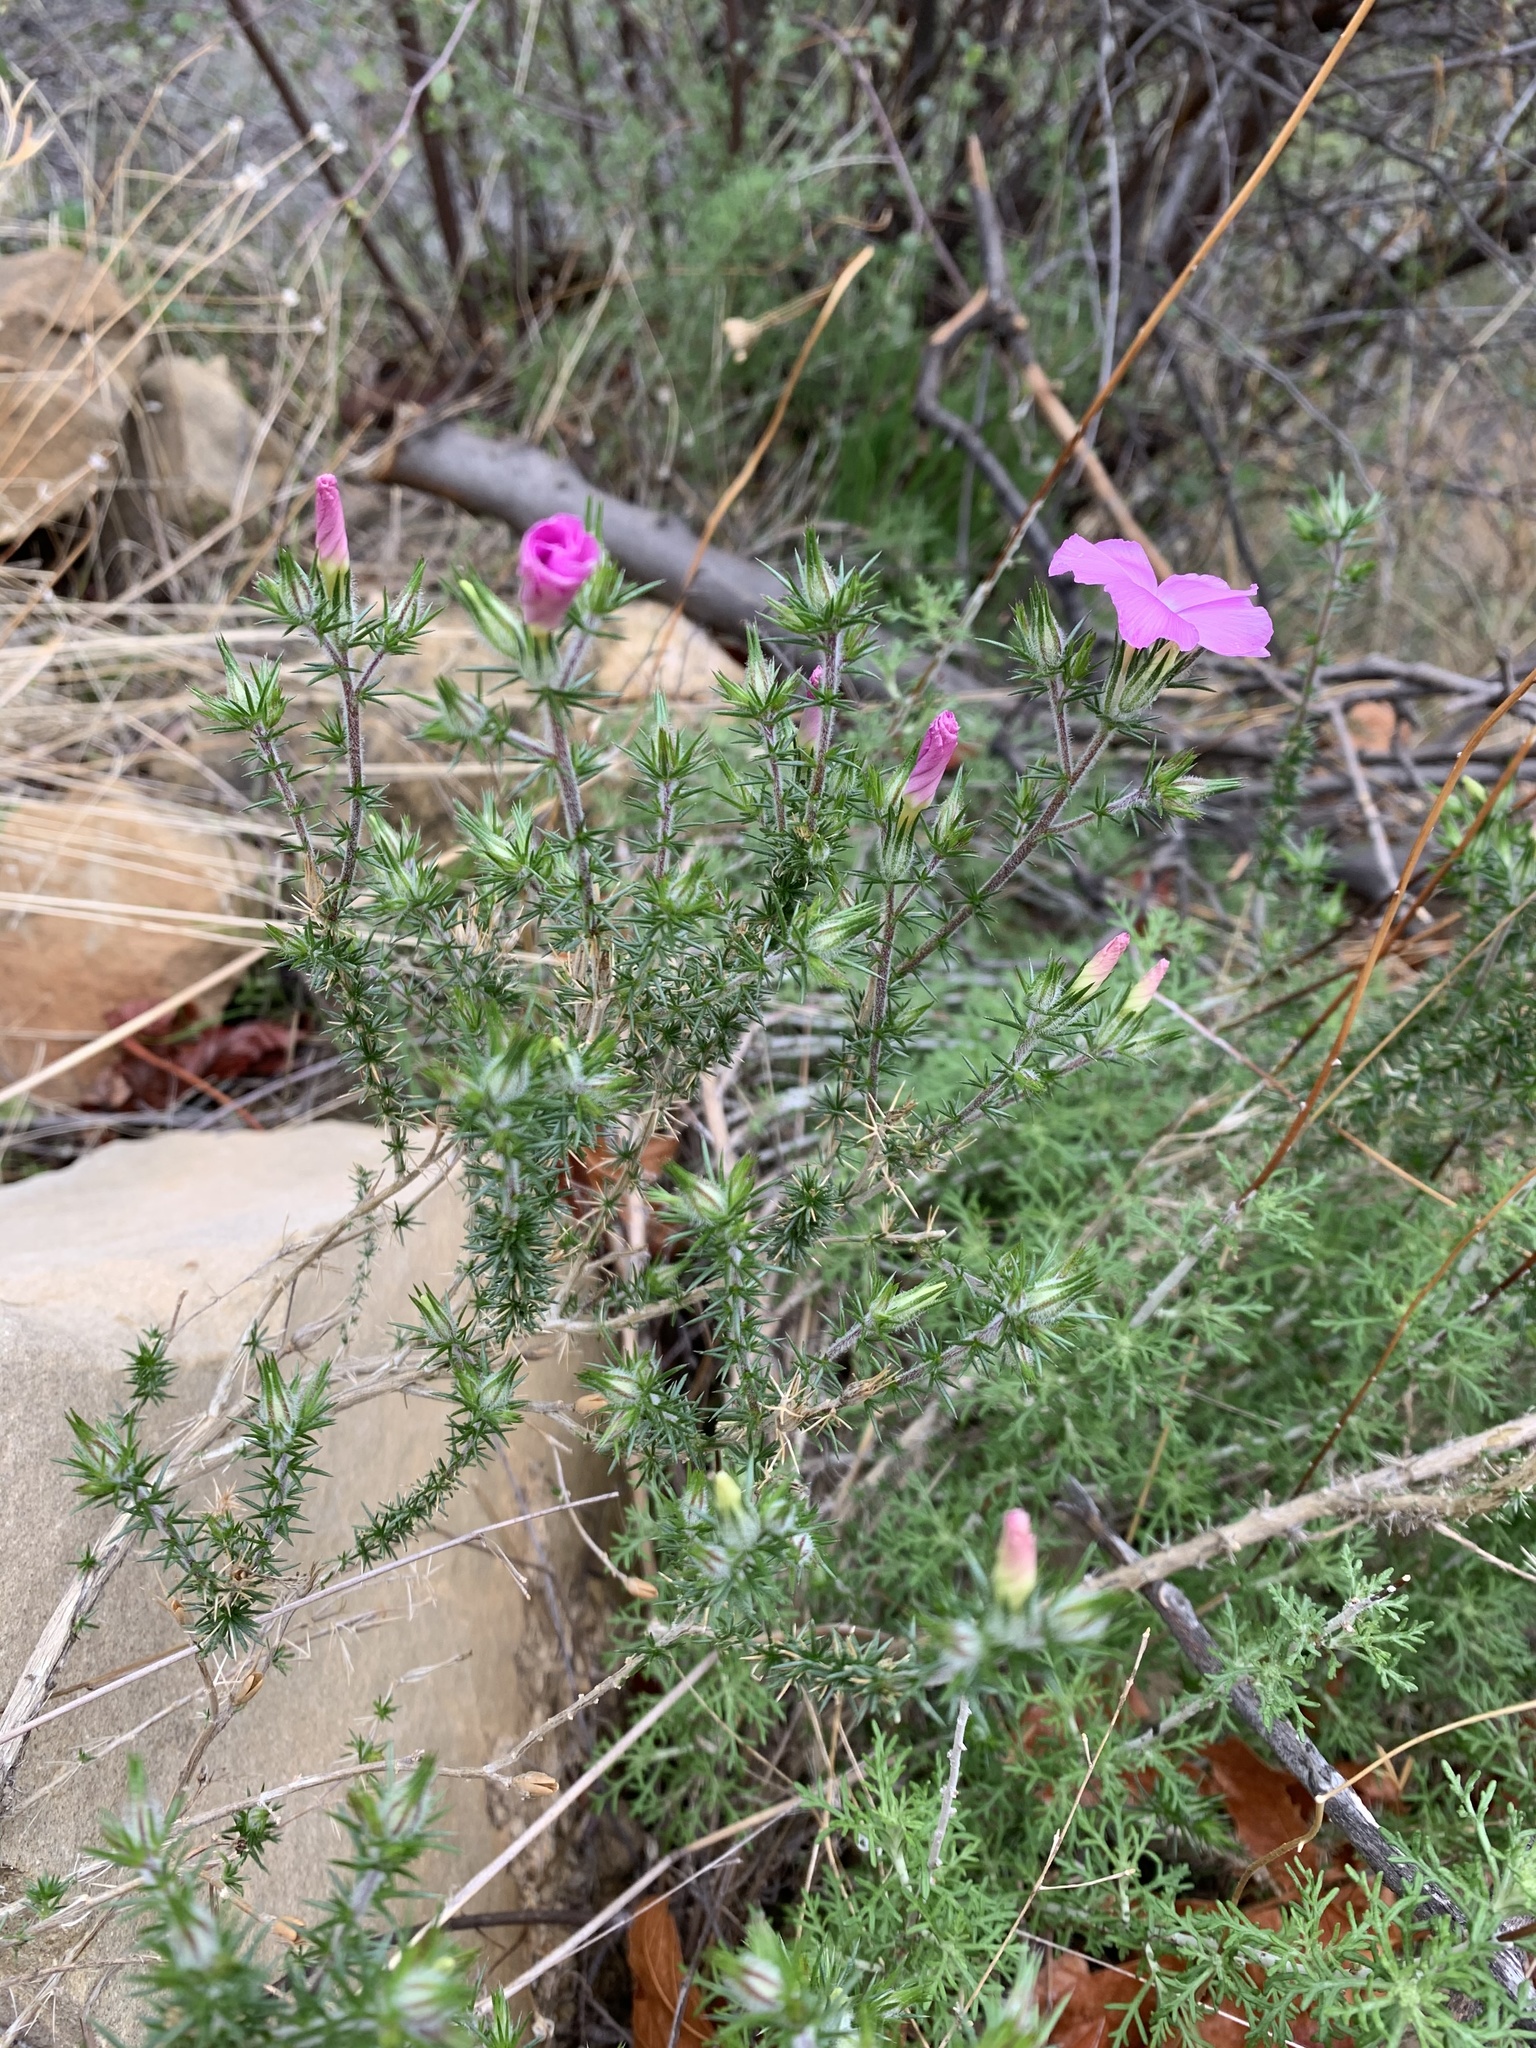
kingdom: Plantae
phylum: Tracheophyta
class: Magnoliopsida
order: Ericales
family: Polemoniaceae
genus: Linanthus
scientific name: Linanthus californicus
